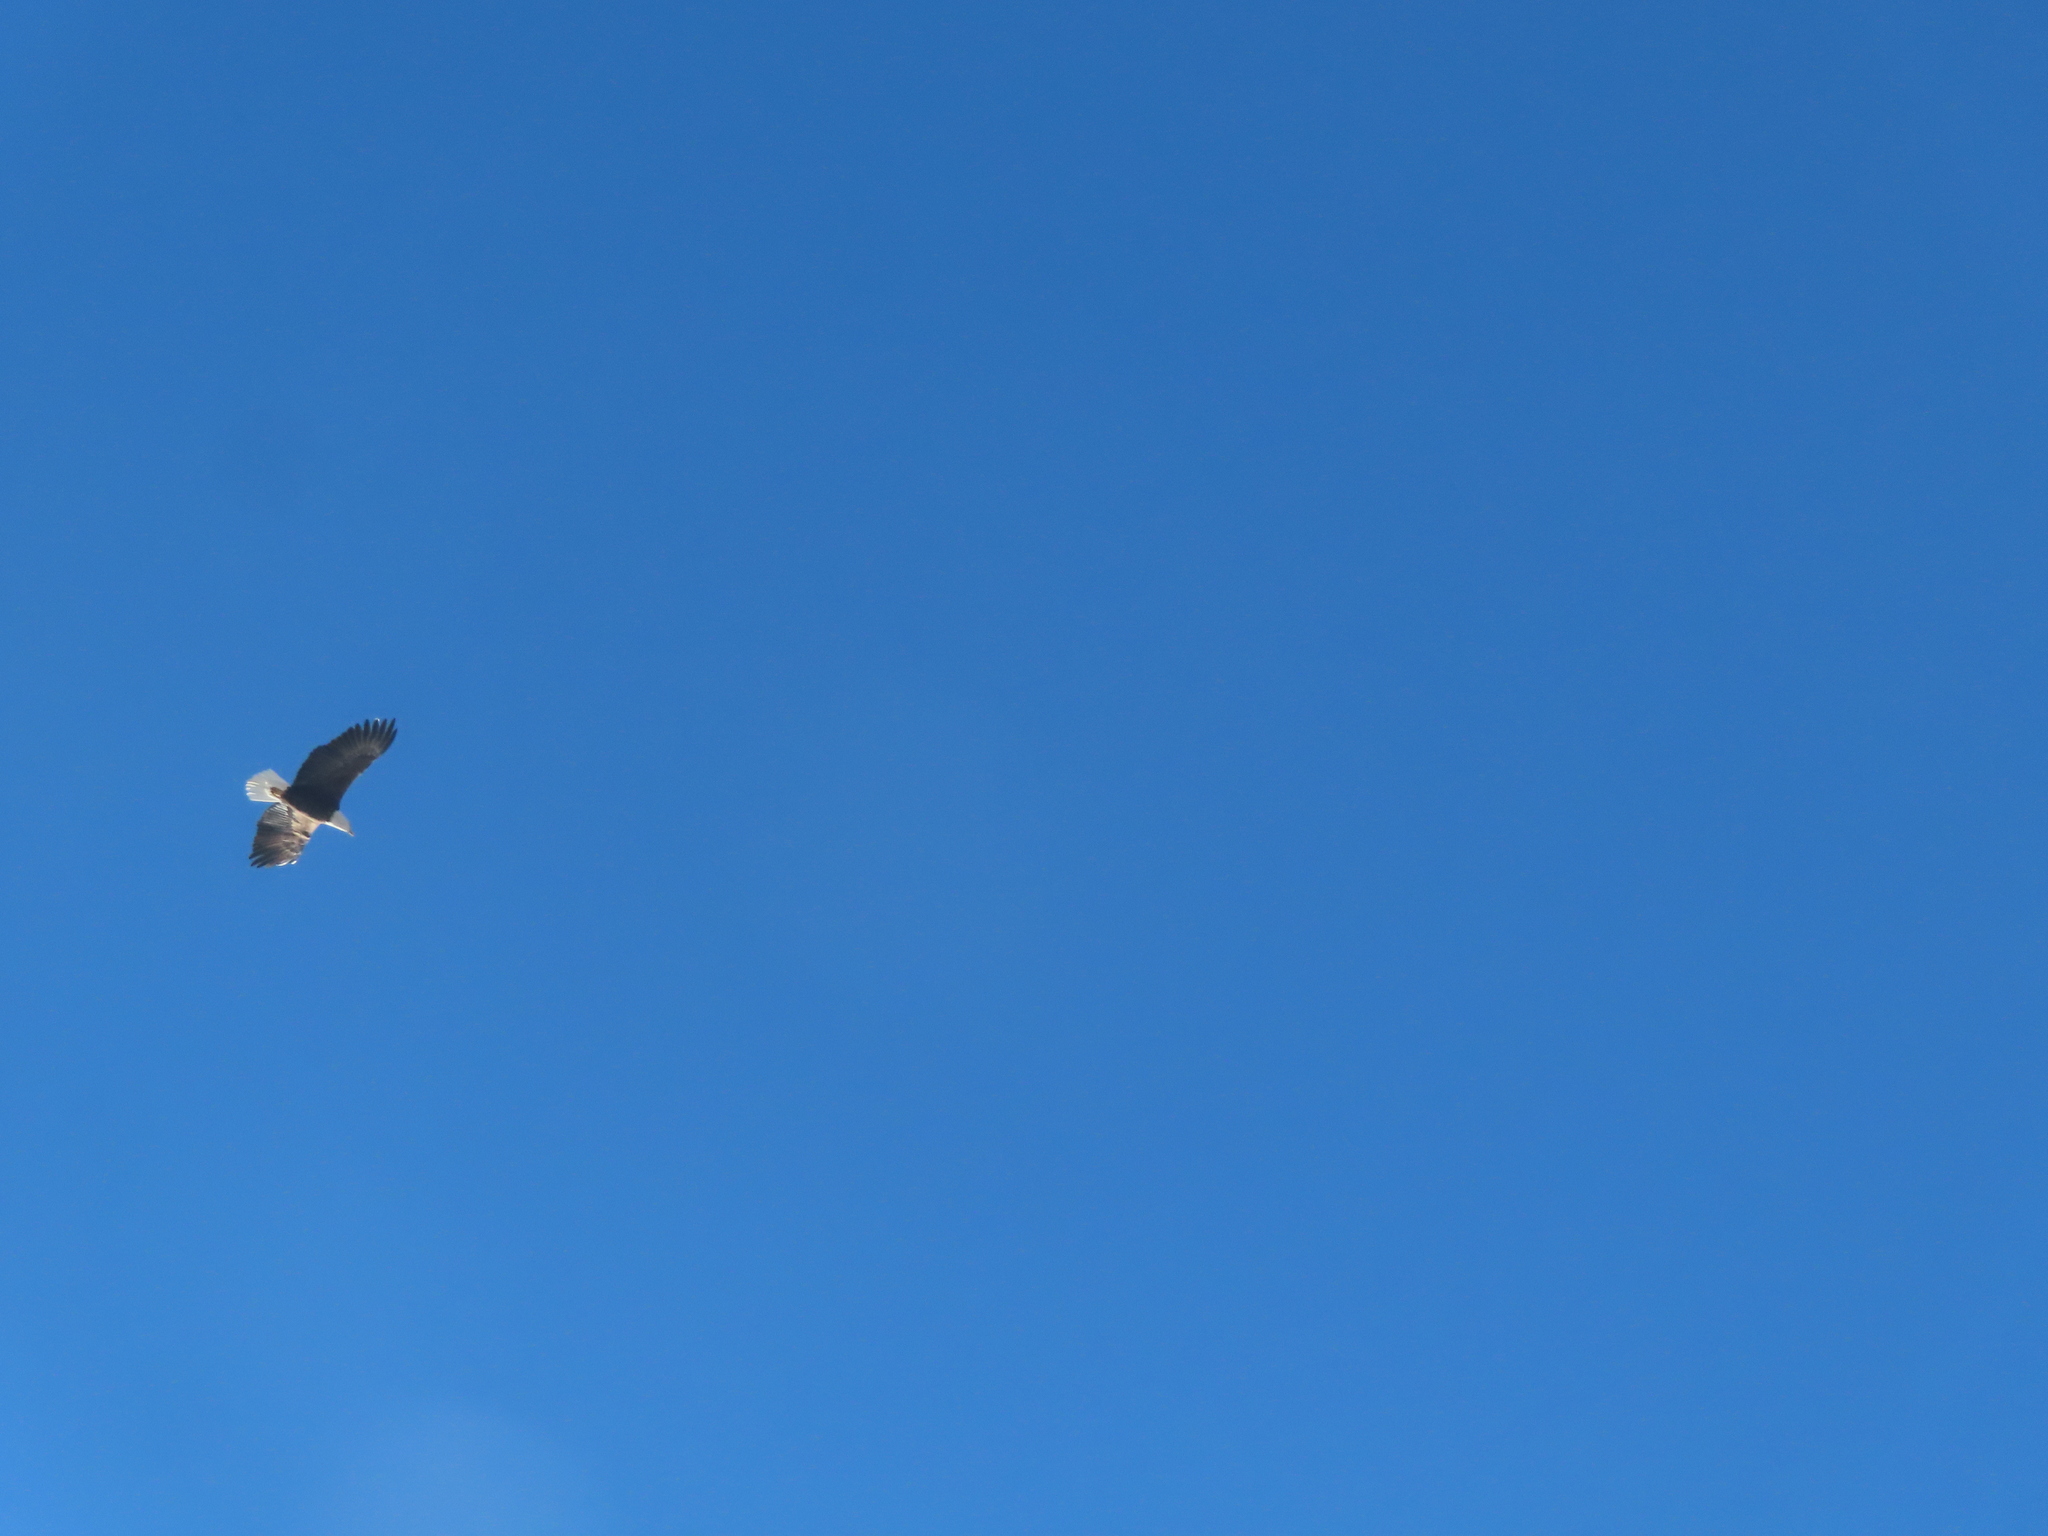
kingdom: Animalia
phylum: Chordata
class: Aves
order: Accipitriformes
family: Accipitridae
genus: Haliaeetus
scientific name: Haliaeetus leucocephalus
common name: Bald eagle
